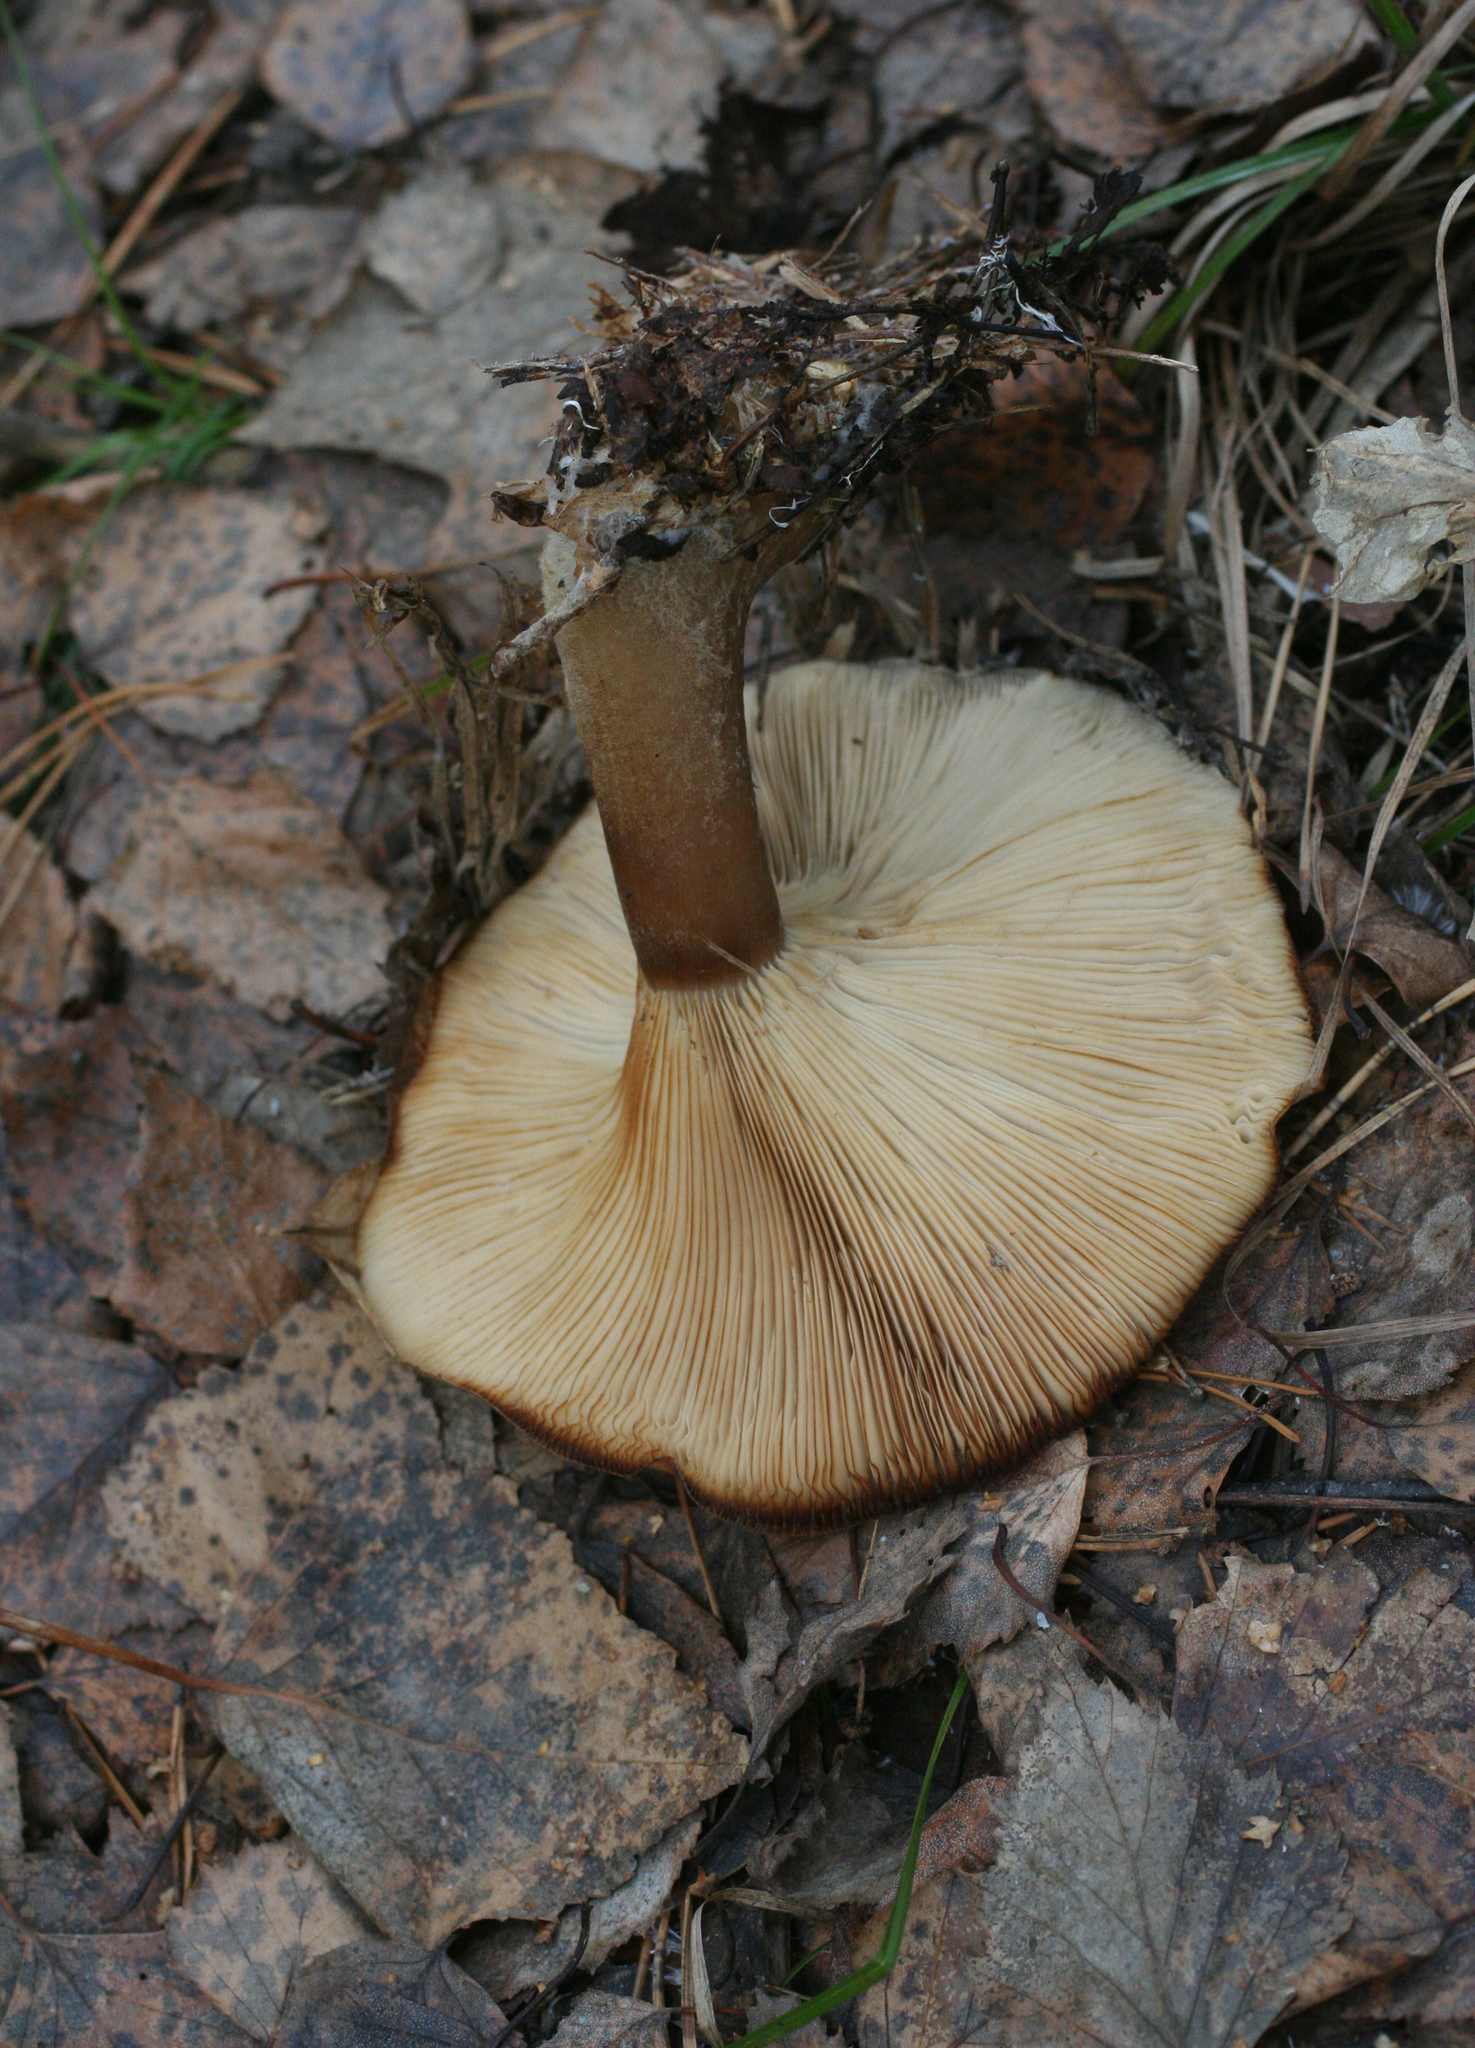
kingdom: Fungi
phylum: Basidiomycota
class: Agaricomycetes
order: Agaricales
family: Tricholomataceae
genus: Clitocybe
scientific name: Clitocybe nebularis
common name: Clouded agaric
